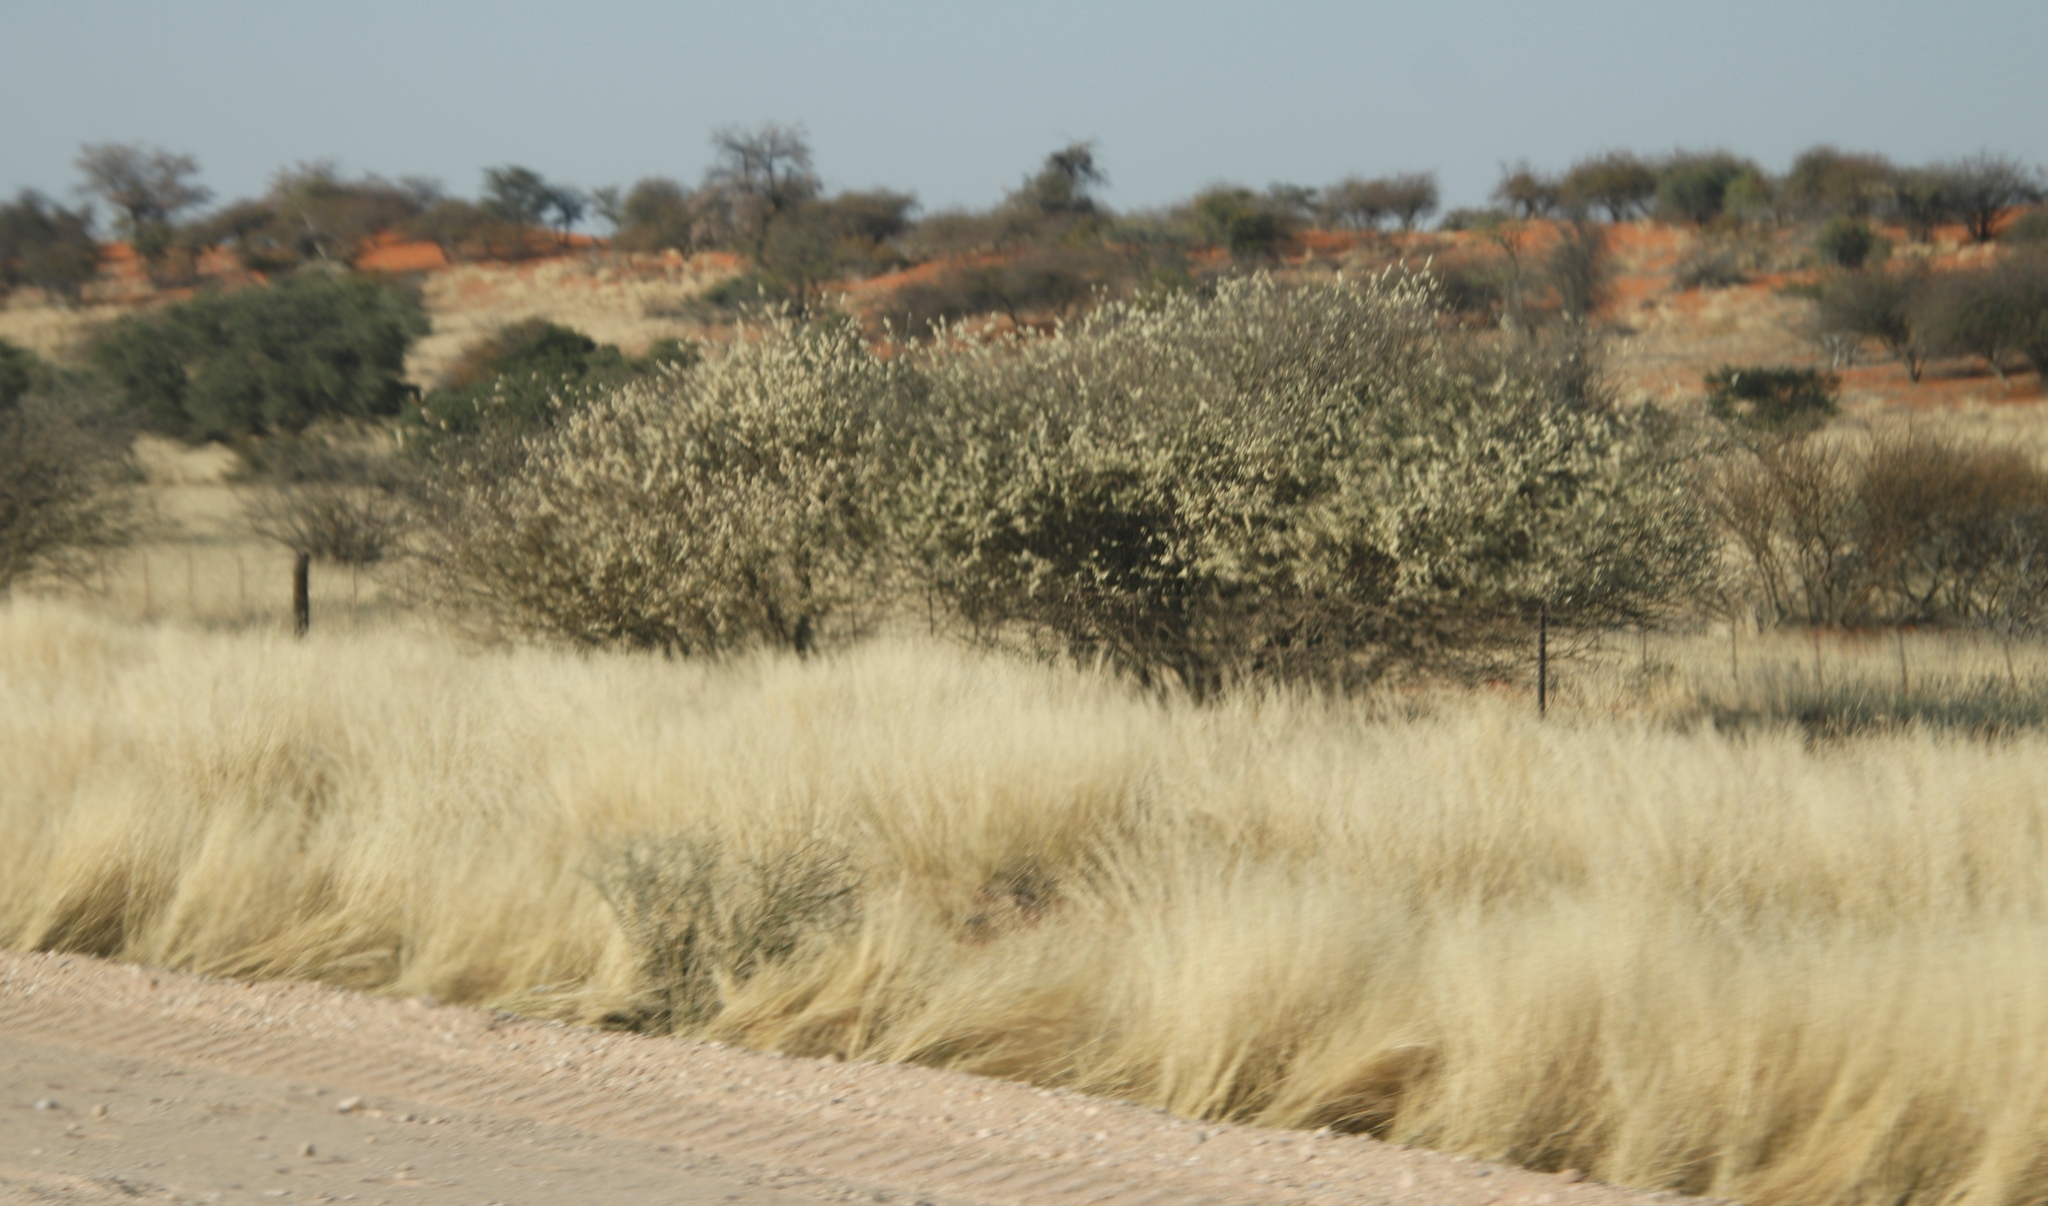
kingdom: Plantae
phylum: Tracheophyta
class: Magnoliopsida
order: Fabales
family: Fabaceae
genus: Senegalia
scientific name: Senegalia mellifera
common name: Hookthorn
